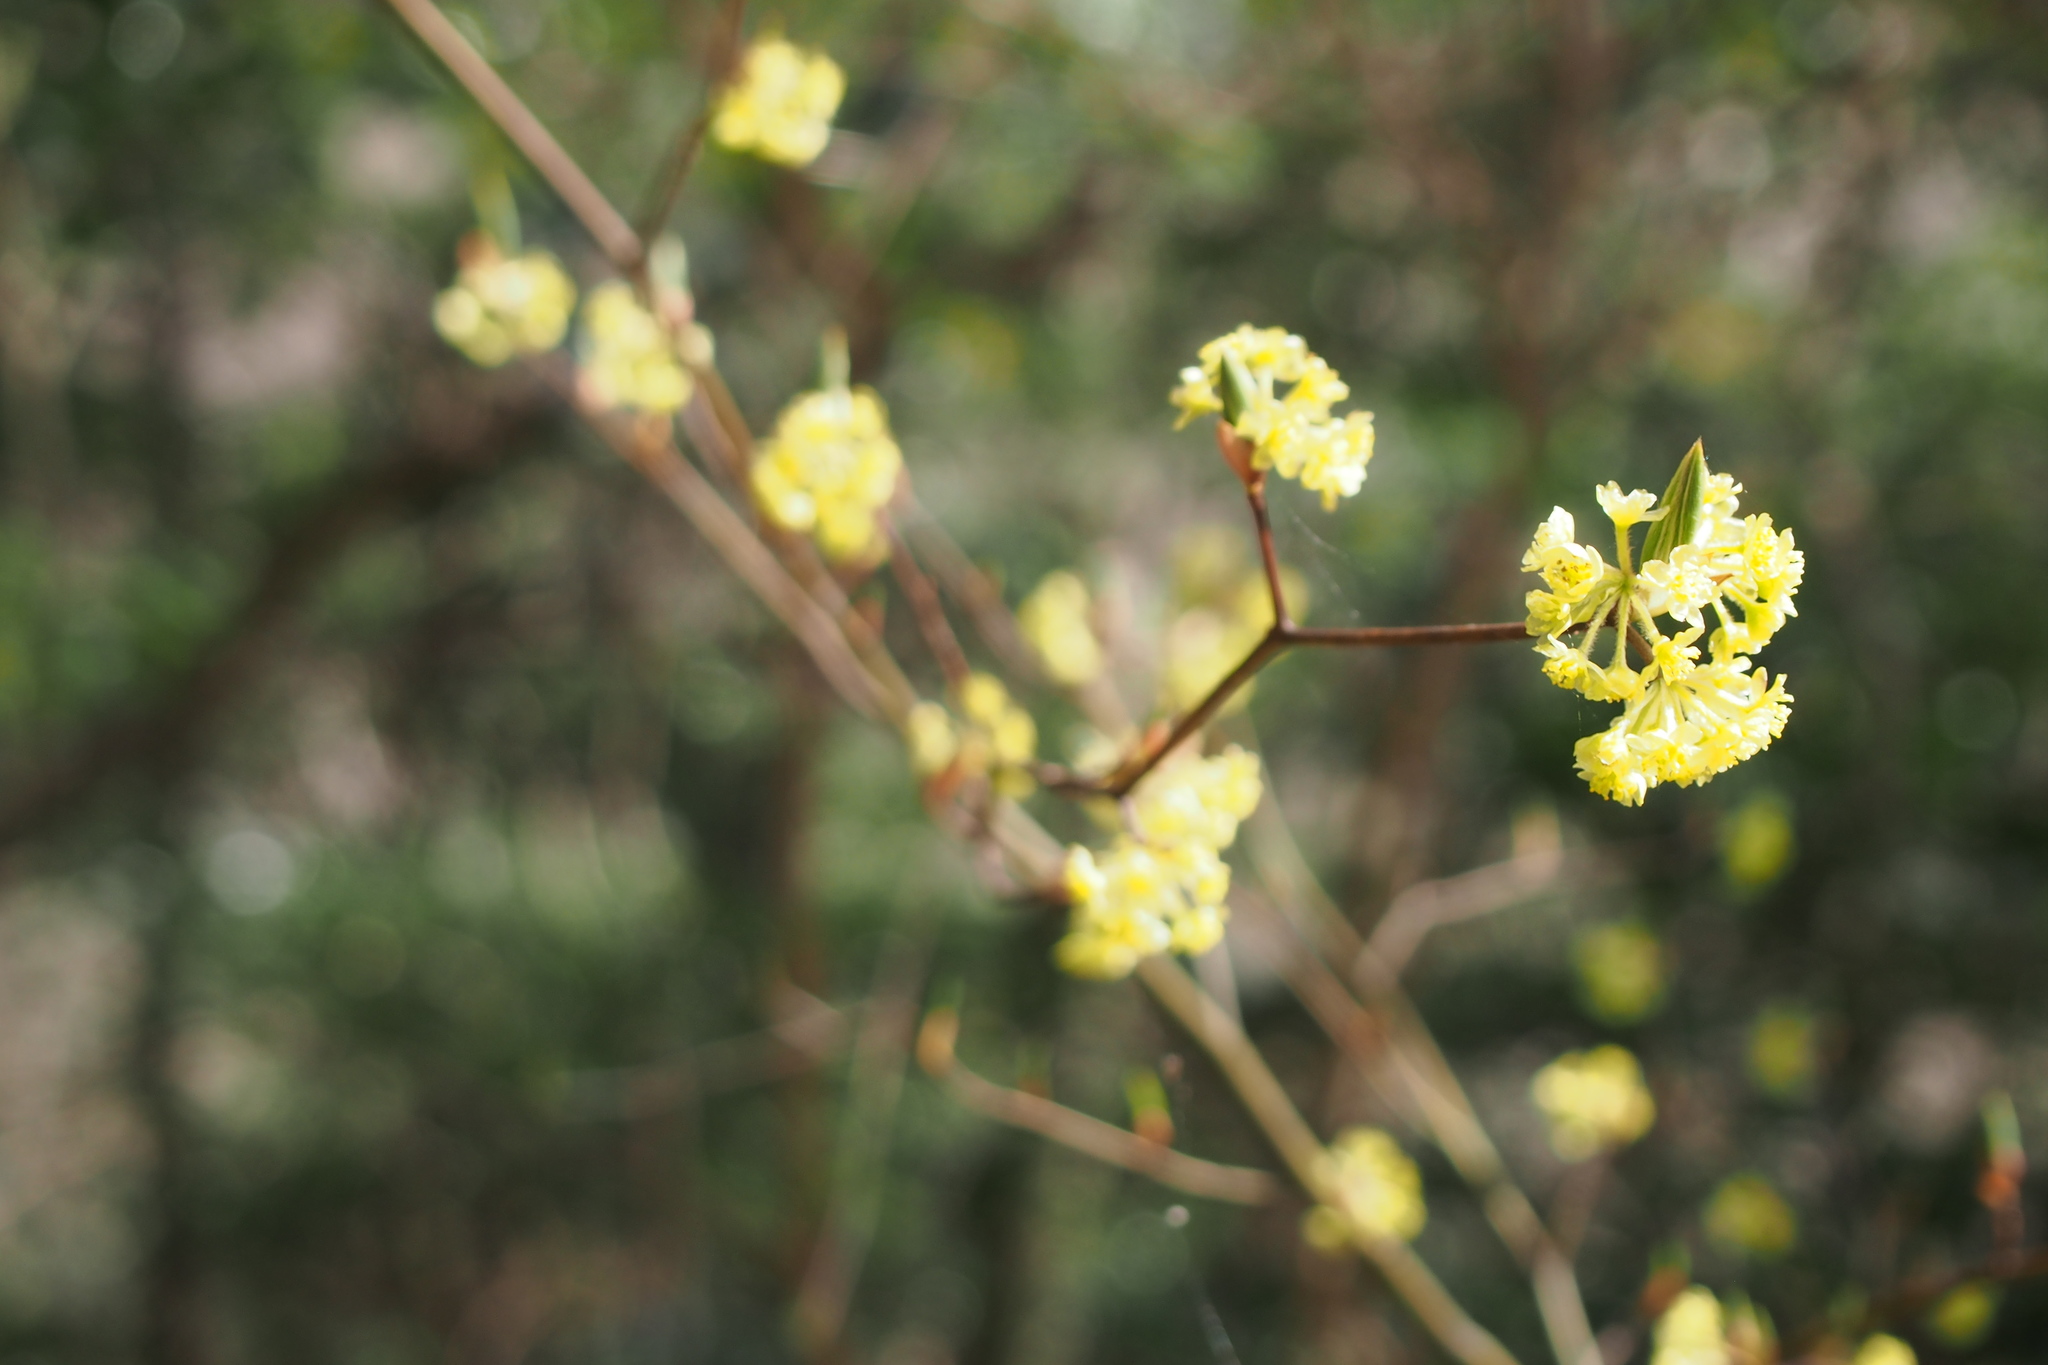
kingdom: Plantae
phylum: Tracheophyta
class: Magnoliopsida
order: Laurales
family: Lauraceae
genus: Lindera
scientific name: Lindera umbellata
